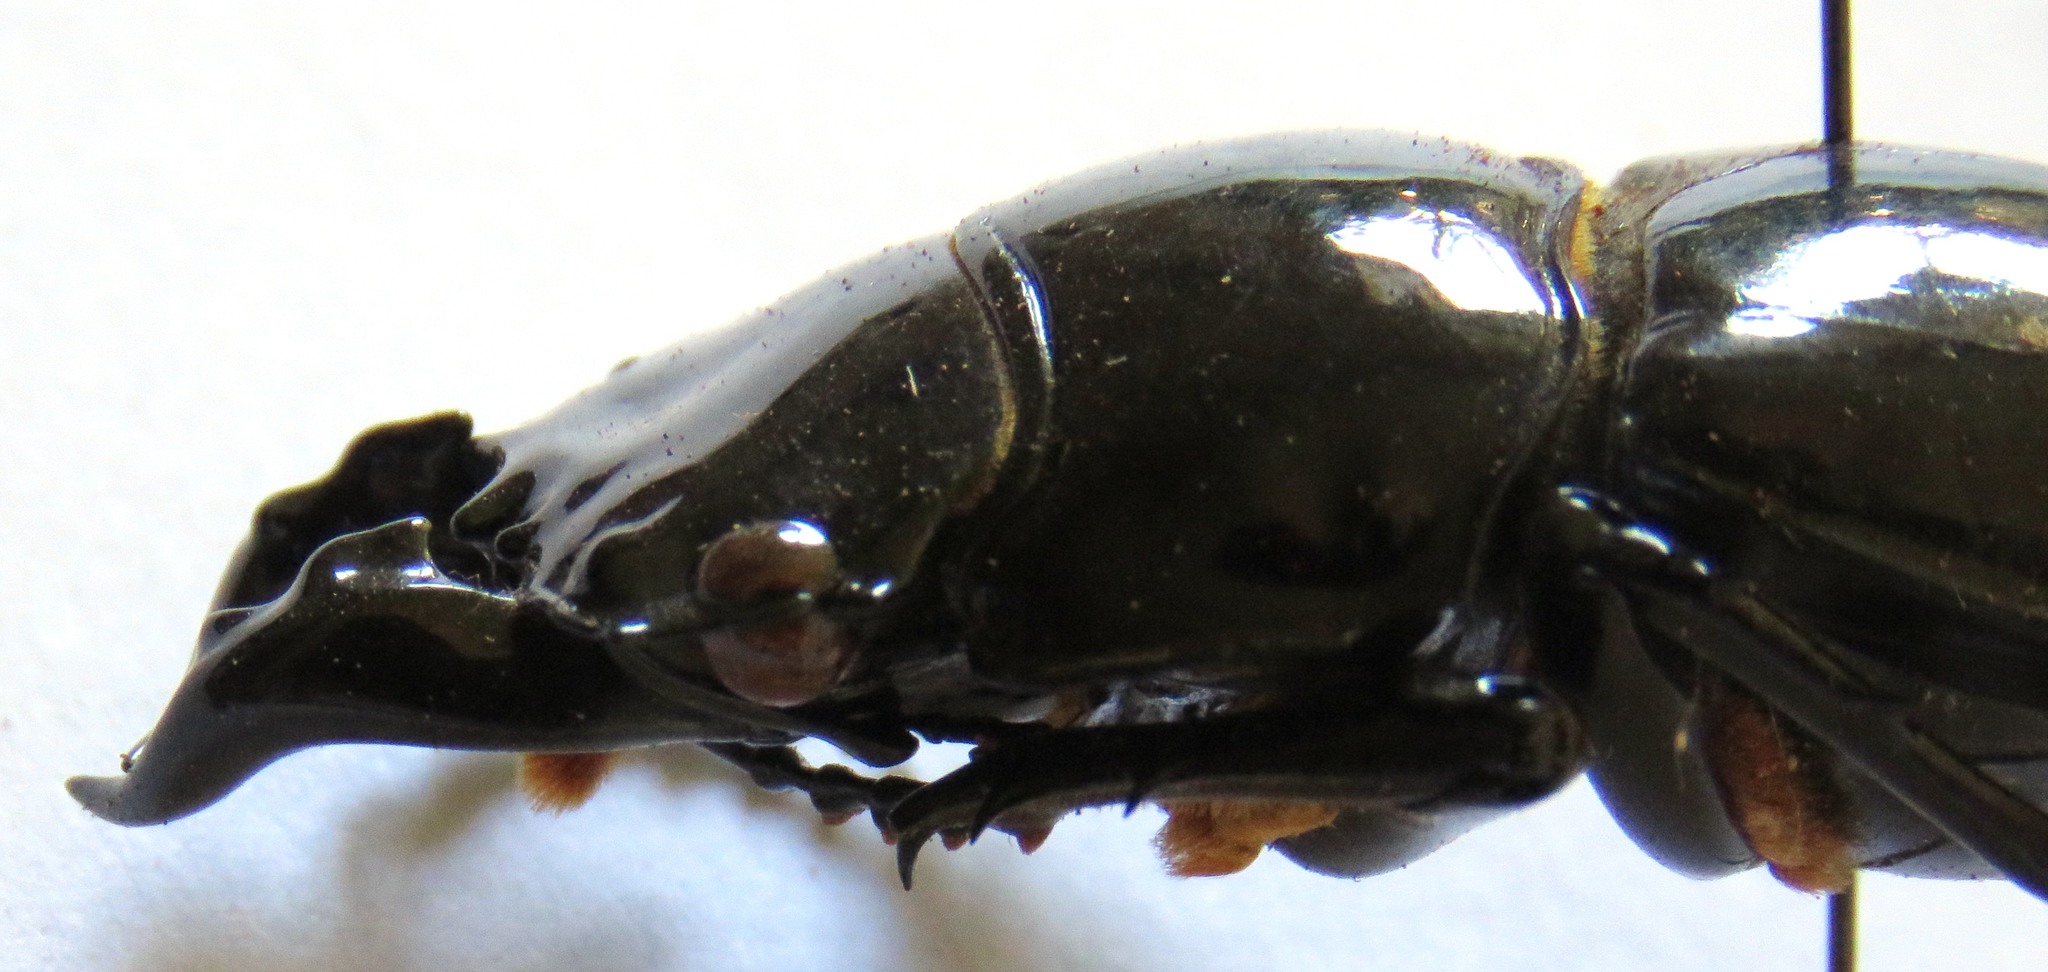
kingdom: Animalia
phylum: Arthropoda
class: Insecta
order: Coleoptera
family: Lucanidae
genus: Mesotopus
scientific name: Mesotopus tarandus
